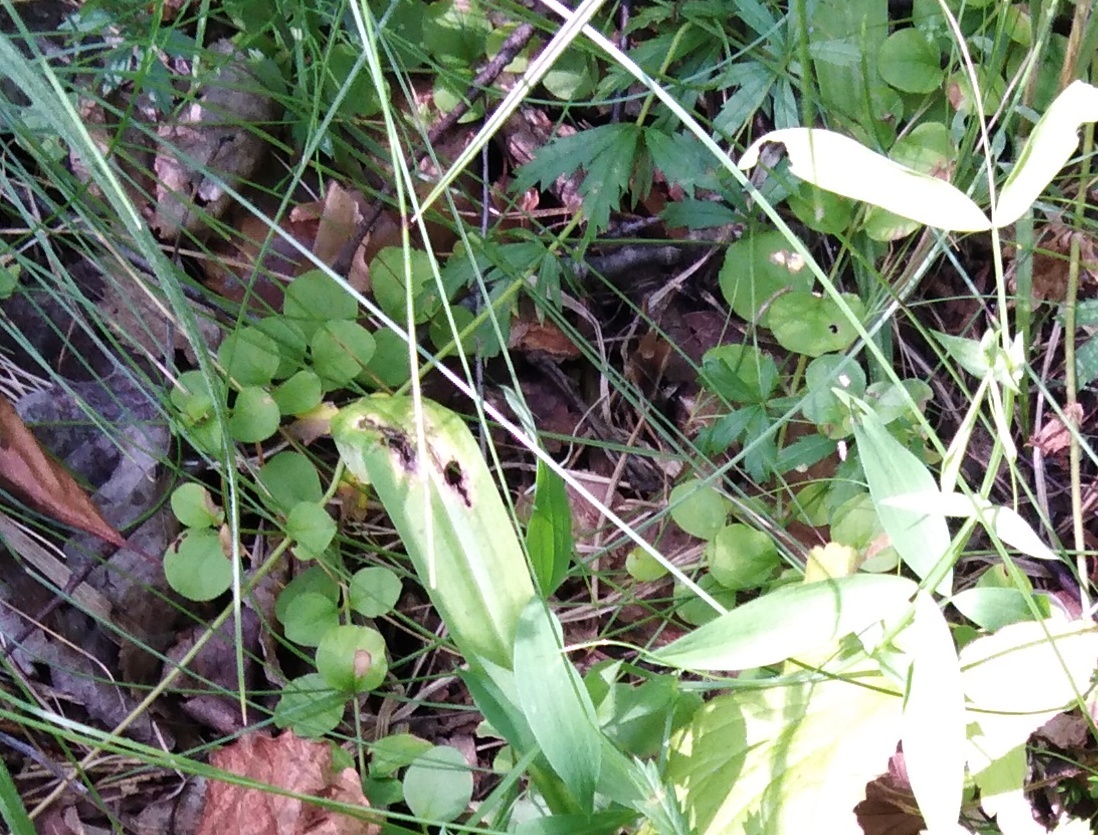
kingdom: Plantae
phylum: Tracheophyta
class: Magnoliopsida
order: Ericales
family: Primulaceae
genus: Lysimachia
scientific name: Lysimachia nummularia
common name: Moneywort
